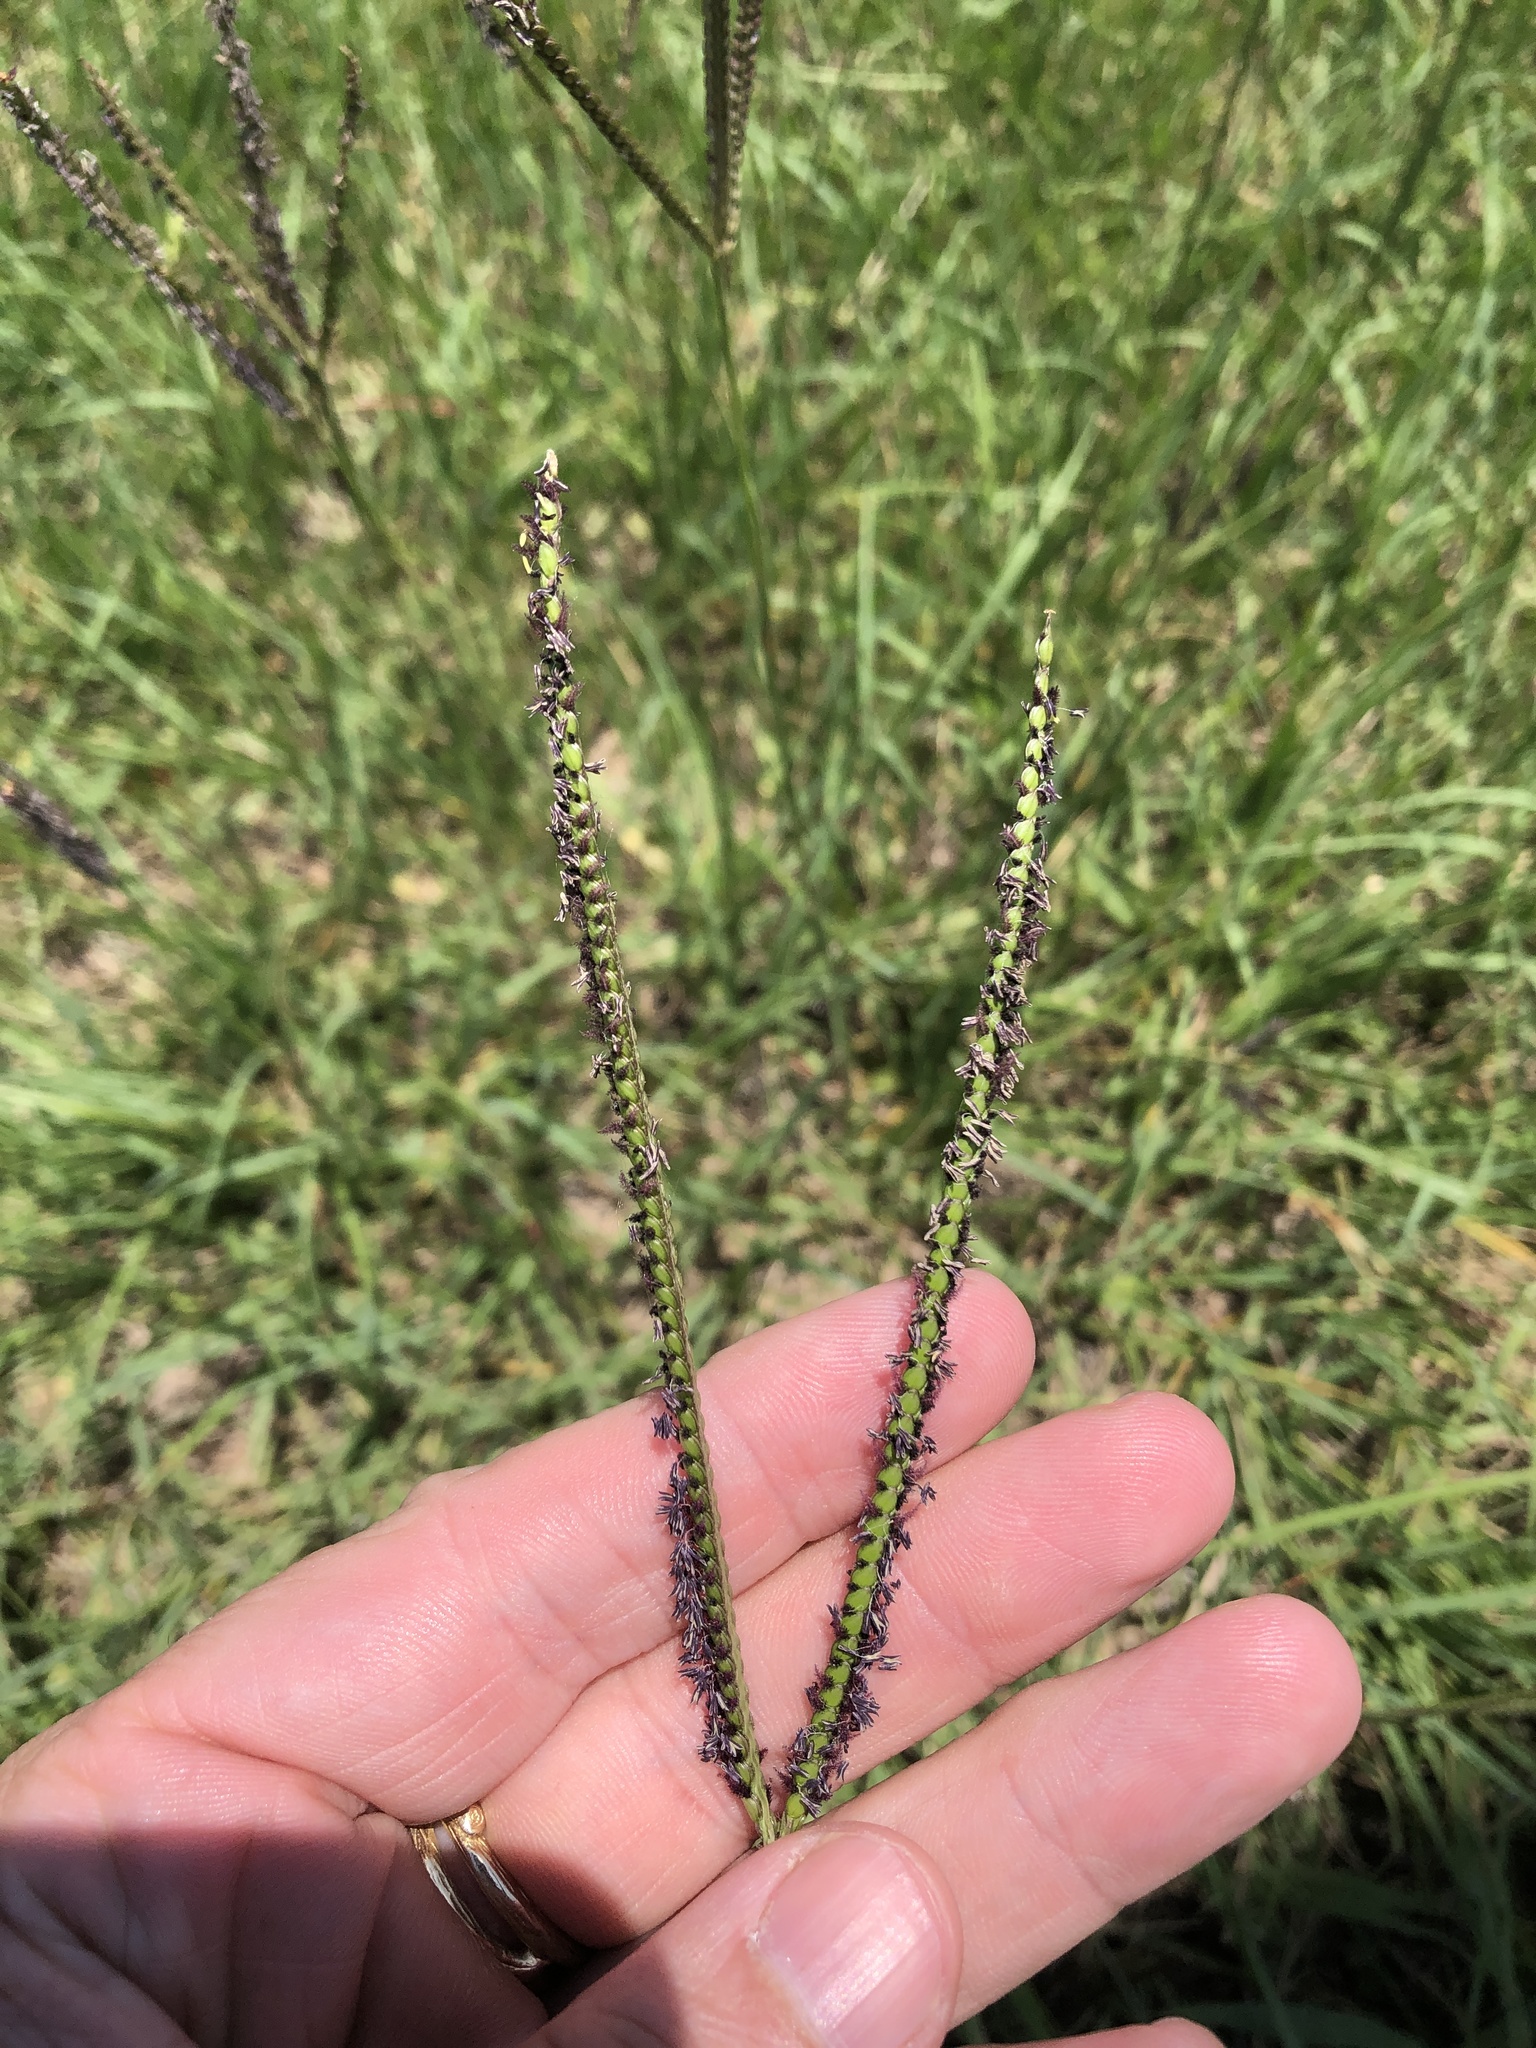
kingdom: Plantae
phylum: Tracheophyta
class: Liliopsida
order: Poales
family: Poaceae
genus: Paspalum
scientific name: Paspalum notatum
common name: Bahiagrass
